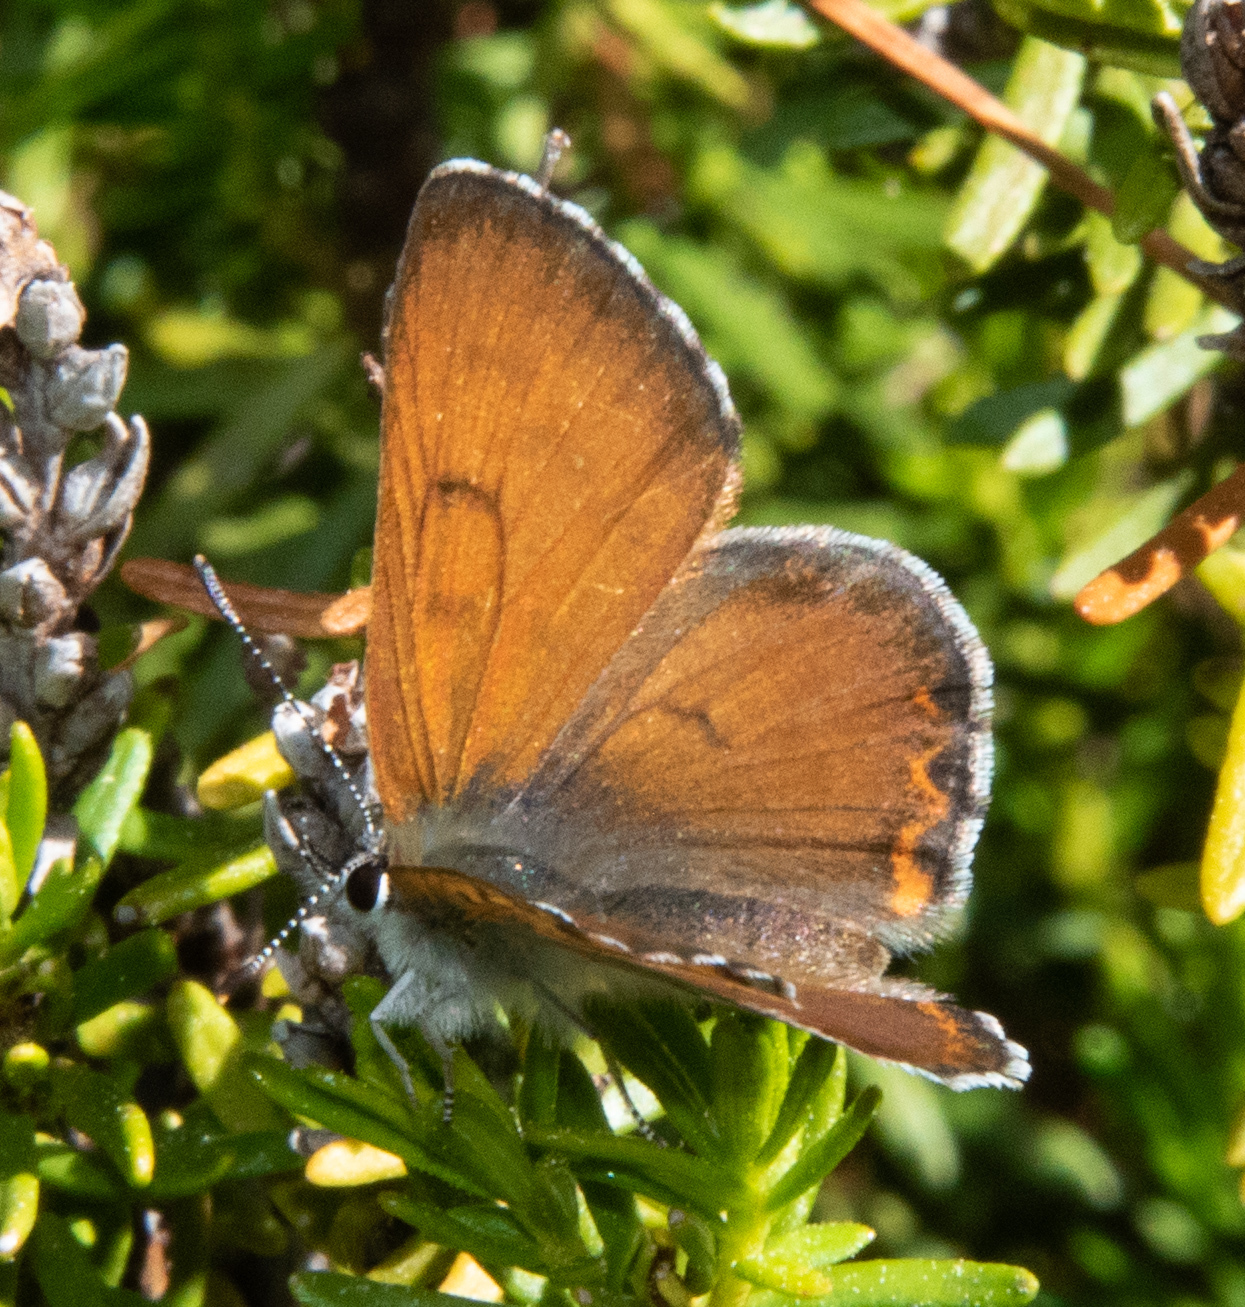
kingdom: Animalia
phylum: Arthropoda
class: Insecta
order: Lepidoptera
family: Lycaenidae
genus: Tharsalea
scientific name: Tharsalea nivalis
